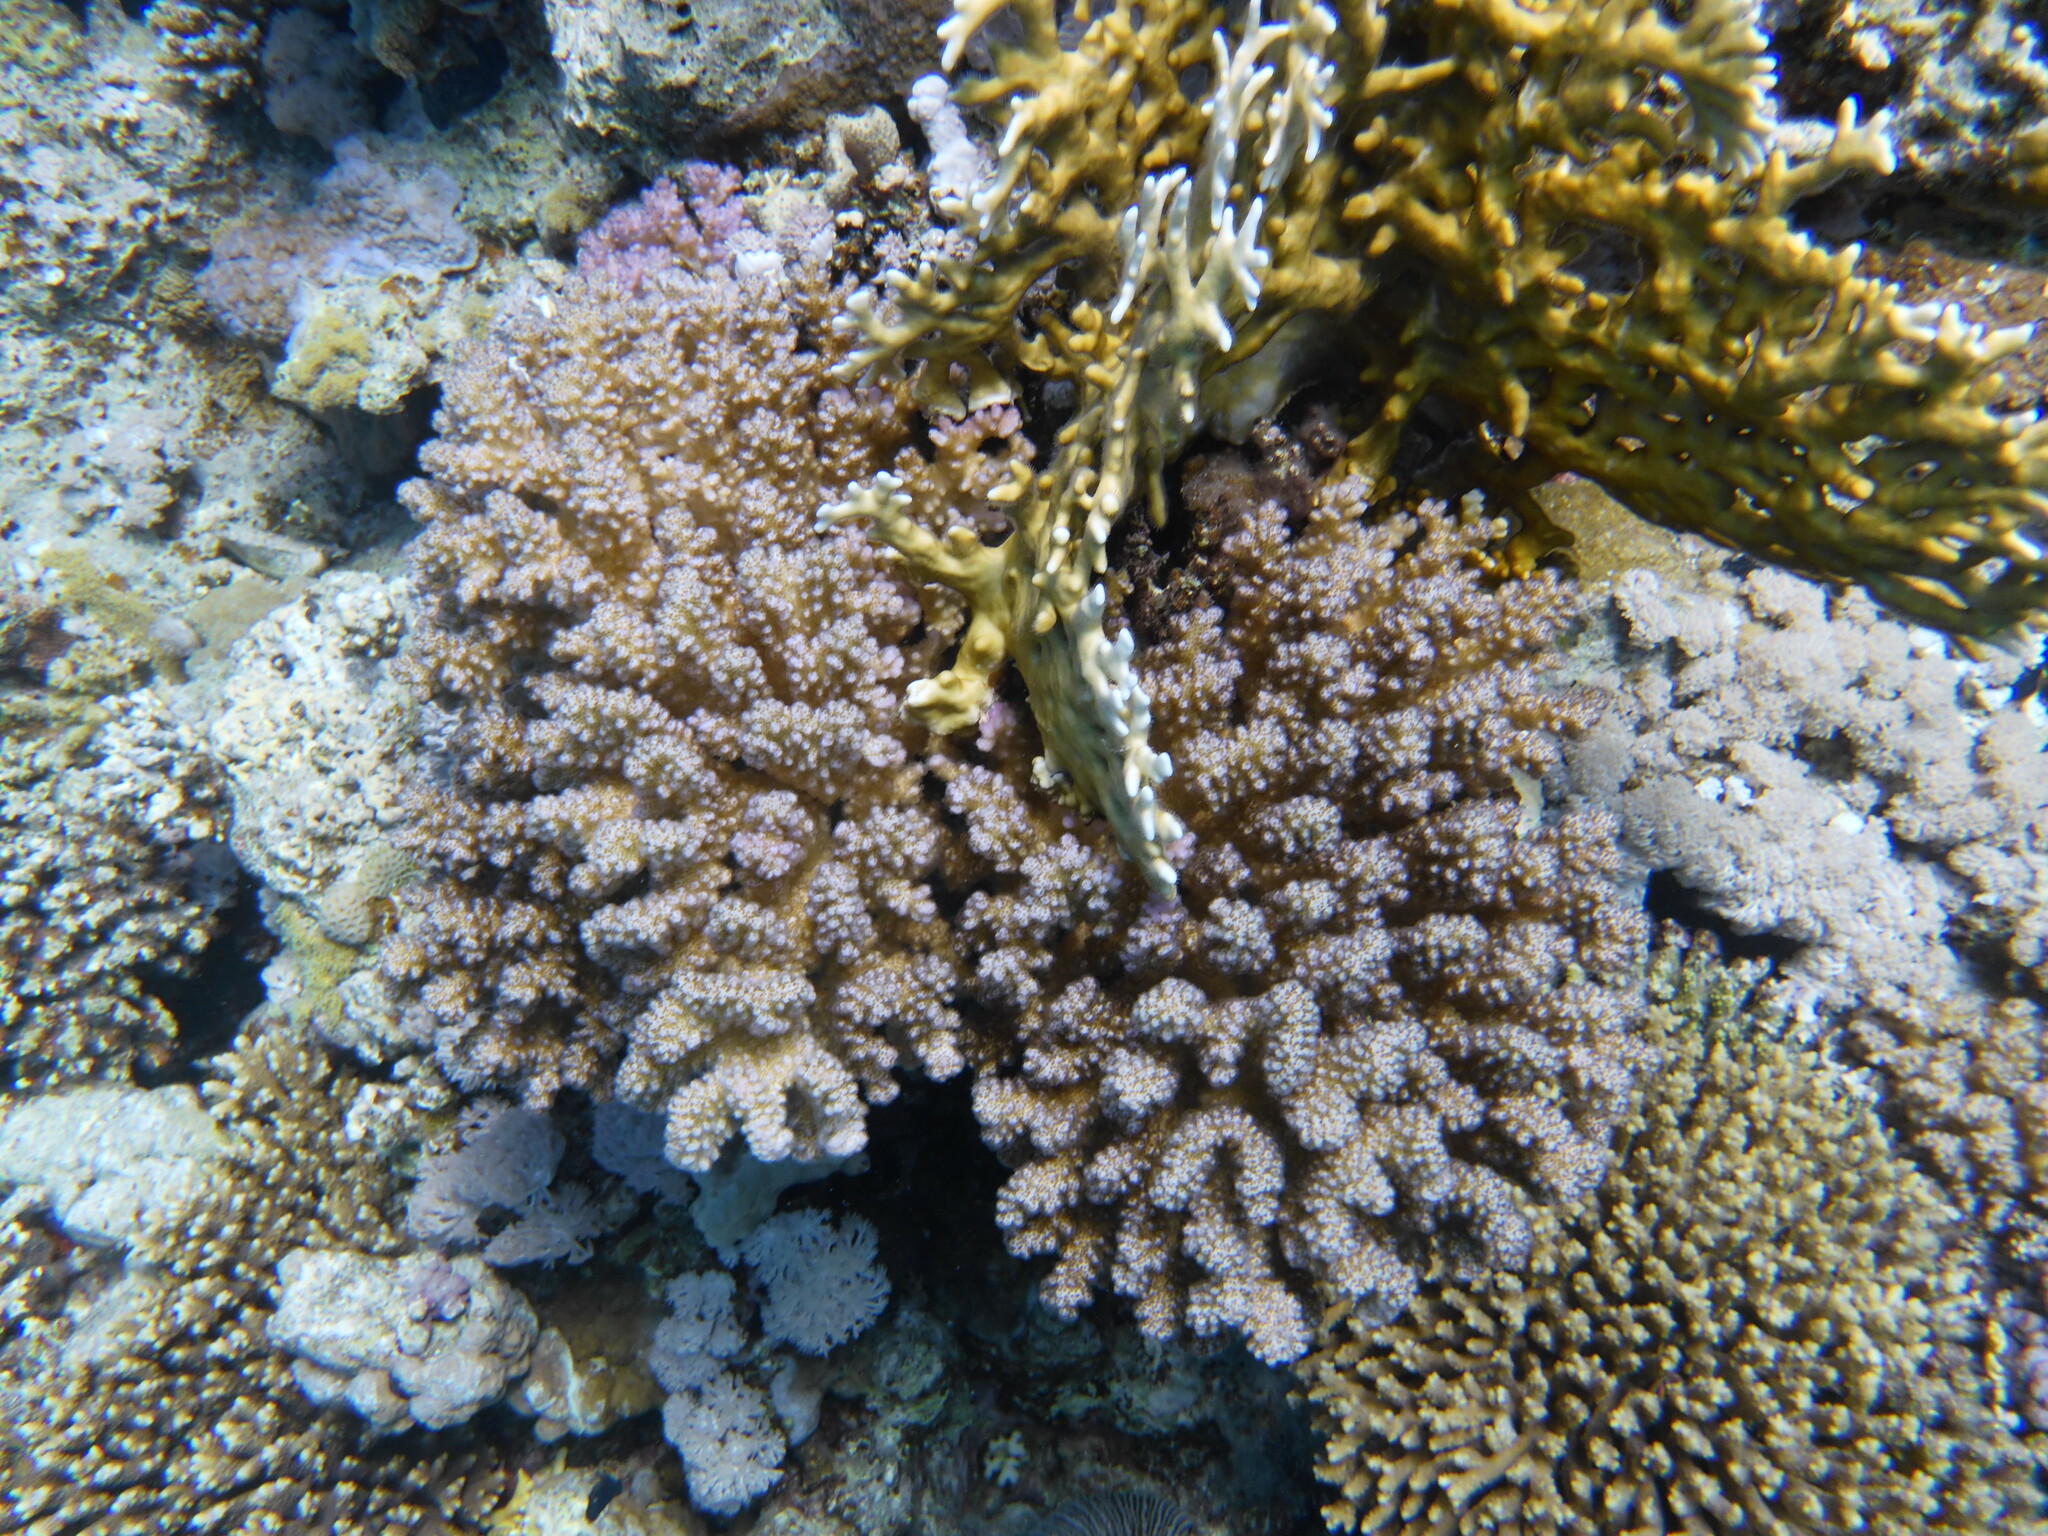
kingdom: Animalia
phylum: Cnidaria
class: Anthozoa
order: Scleractinia
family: Pocilloporidae
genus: Pocillopora
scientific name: Pocillopora verrucosa
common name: Cauliflower coral
